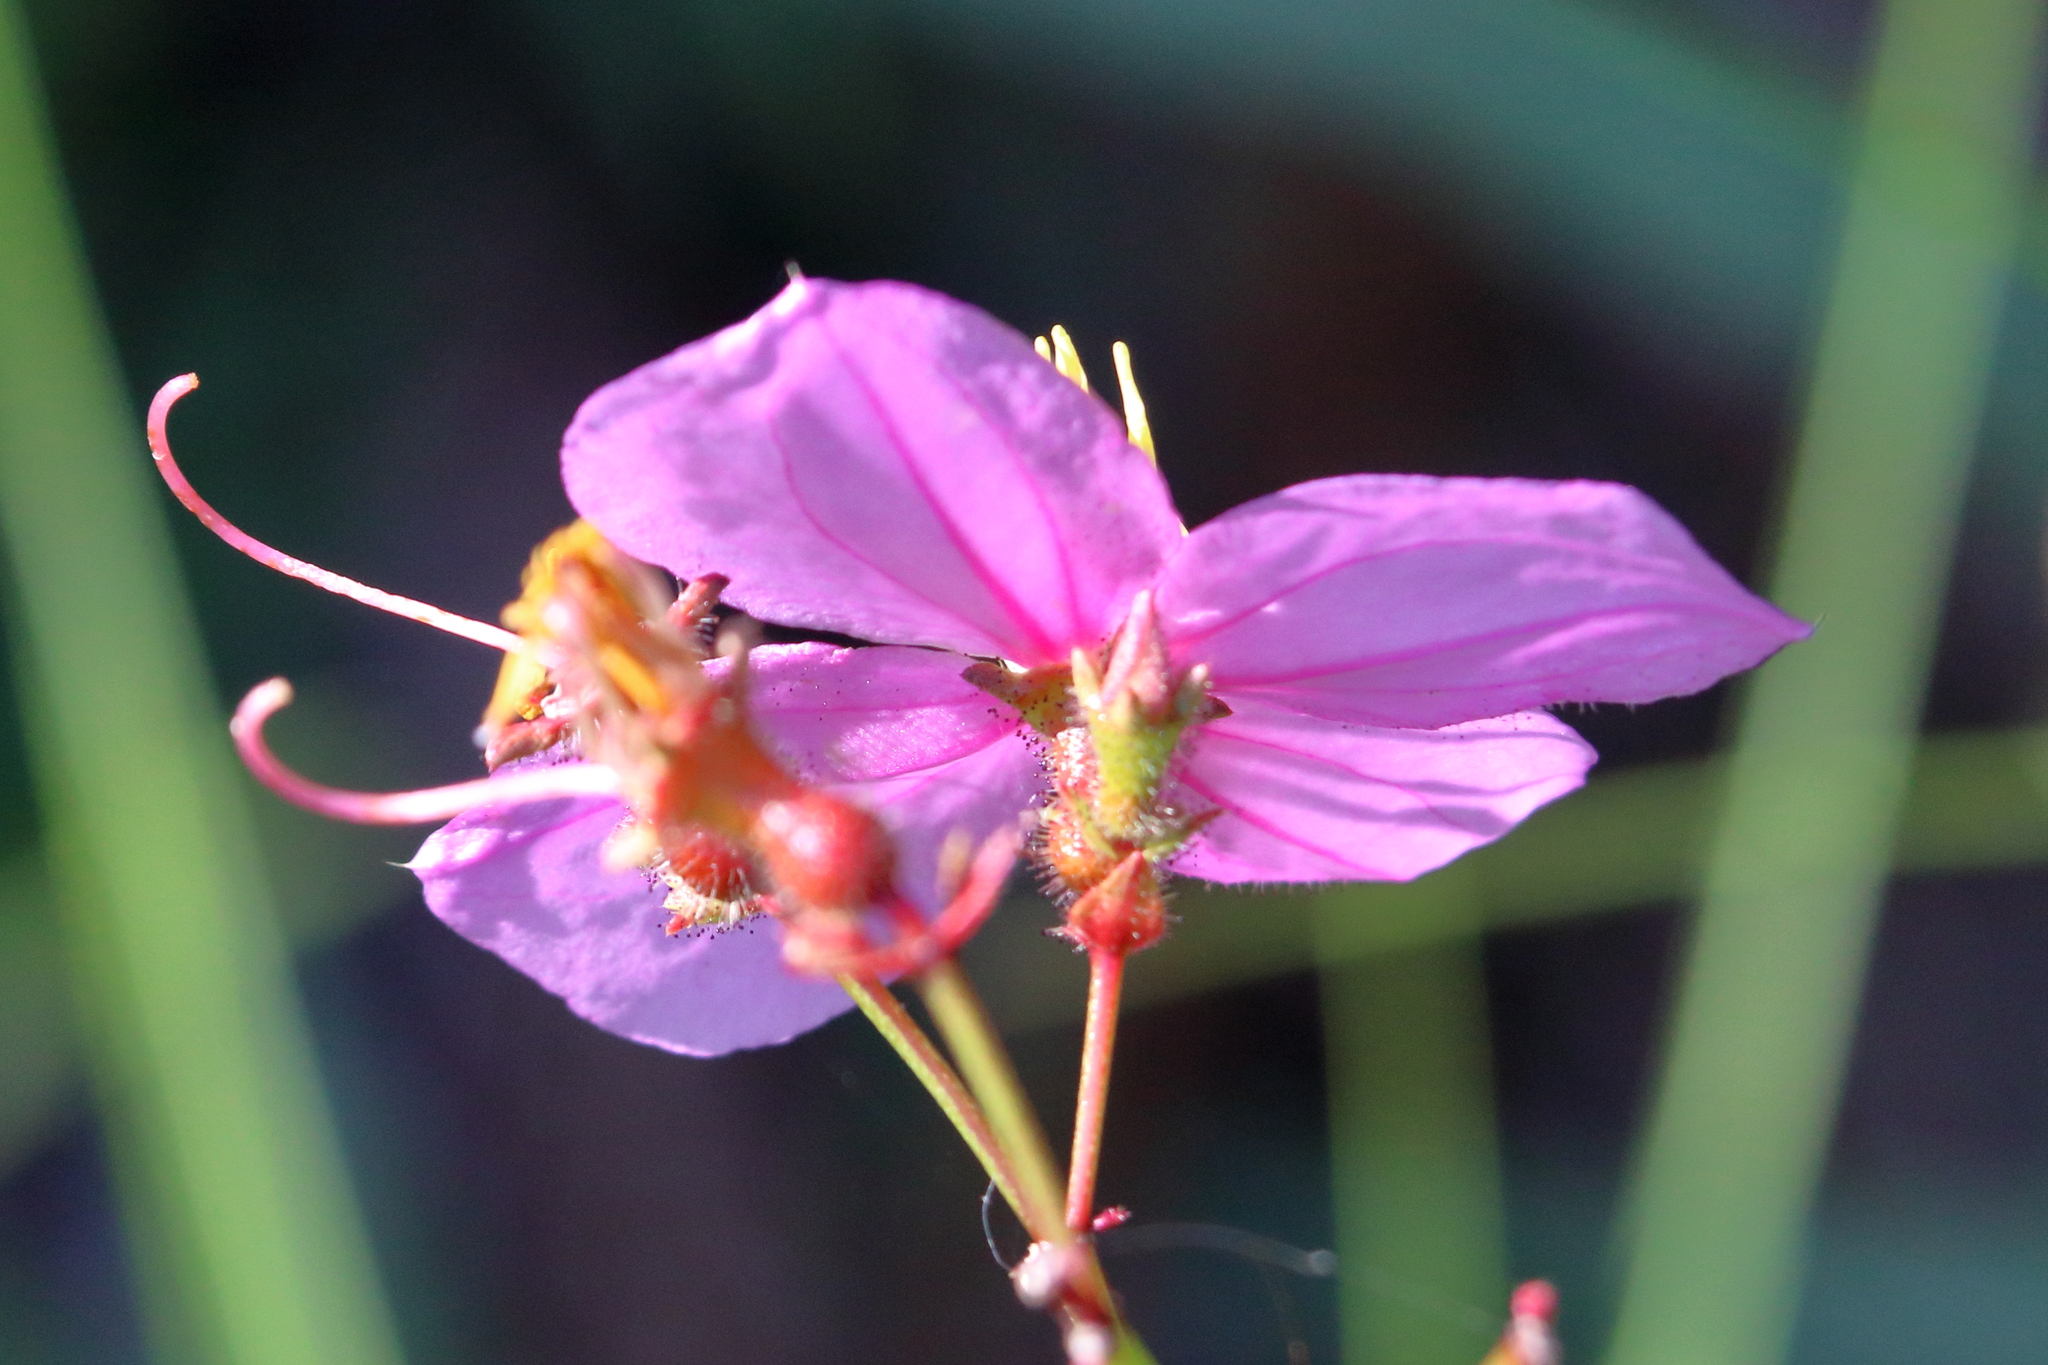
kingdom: Plantae
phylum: Tracheophyta
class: Magnoliopsida
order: Myrtales
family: Melastomataceae
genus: Rhexia
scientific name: Rhexia alifanus
